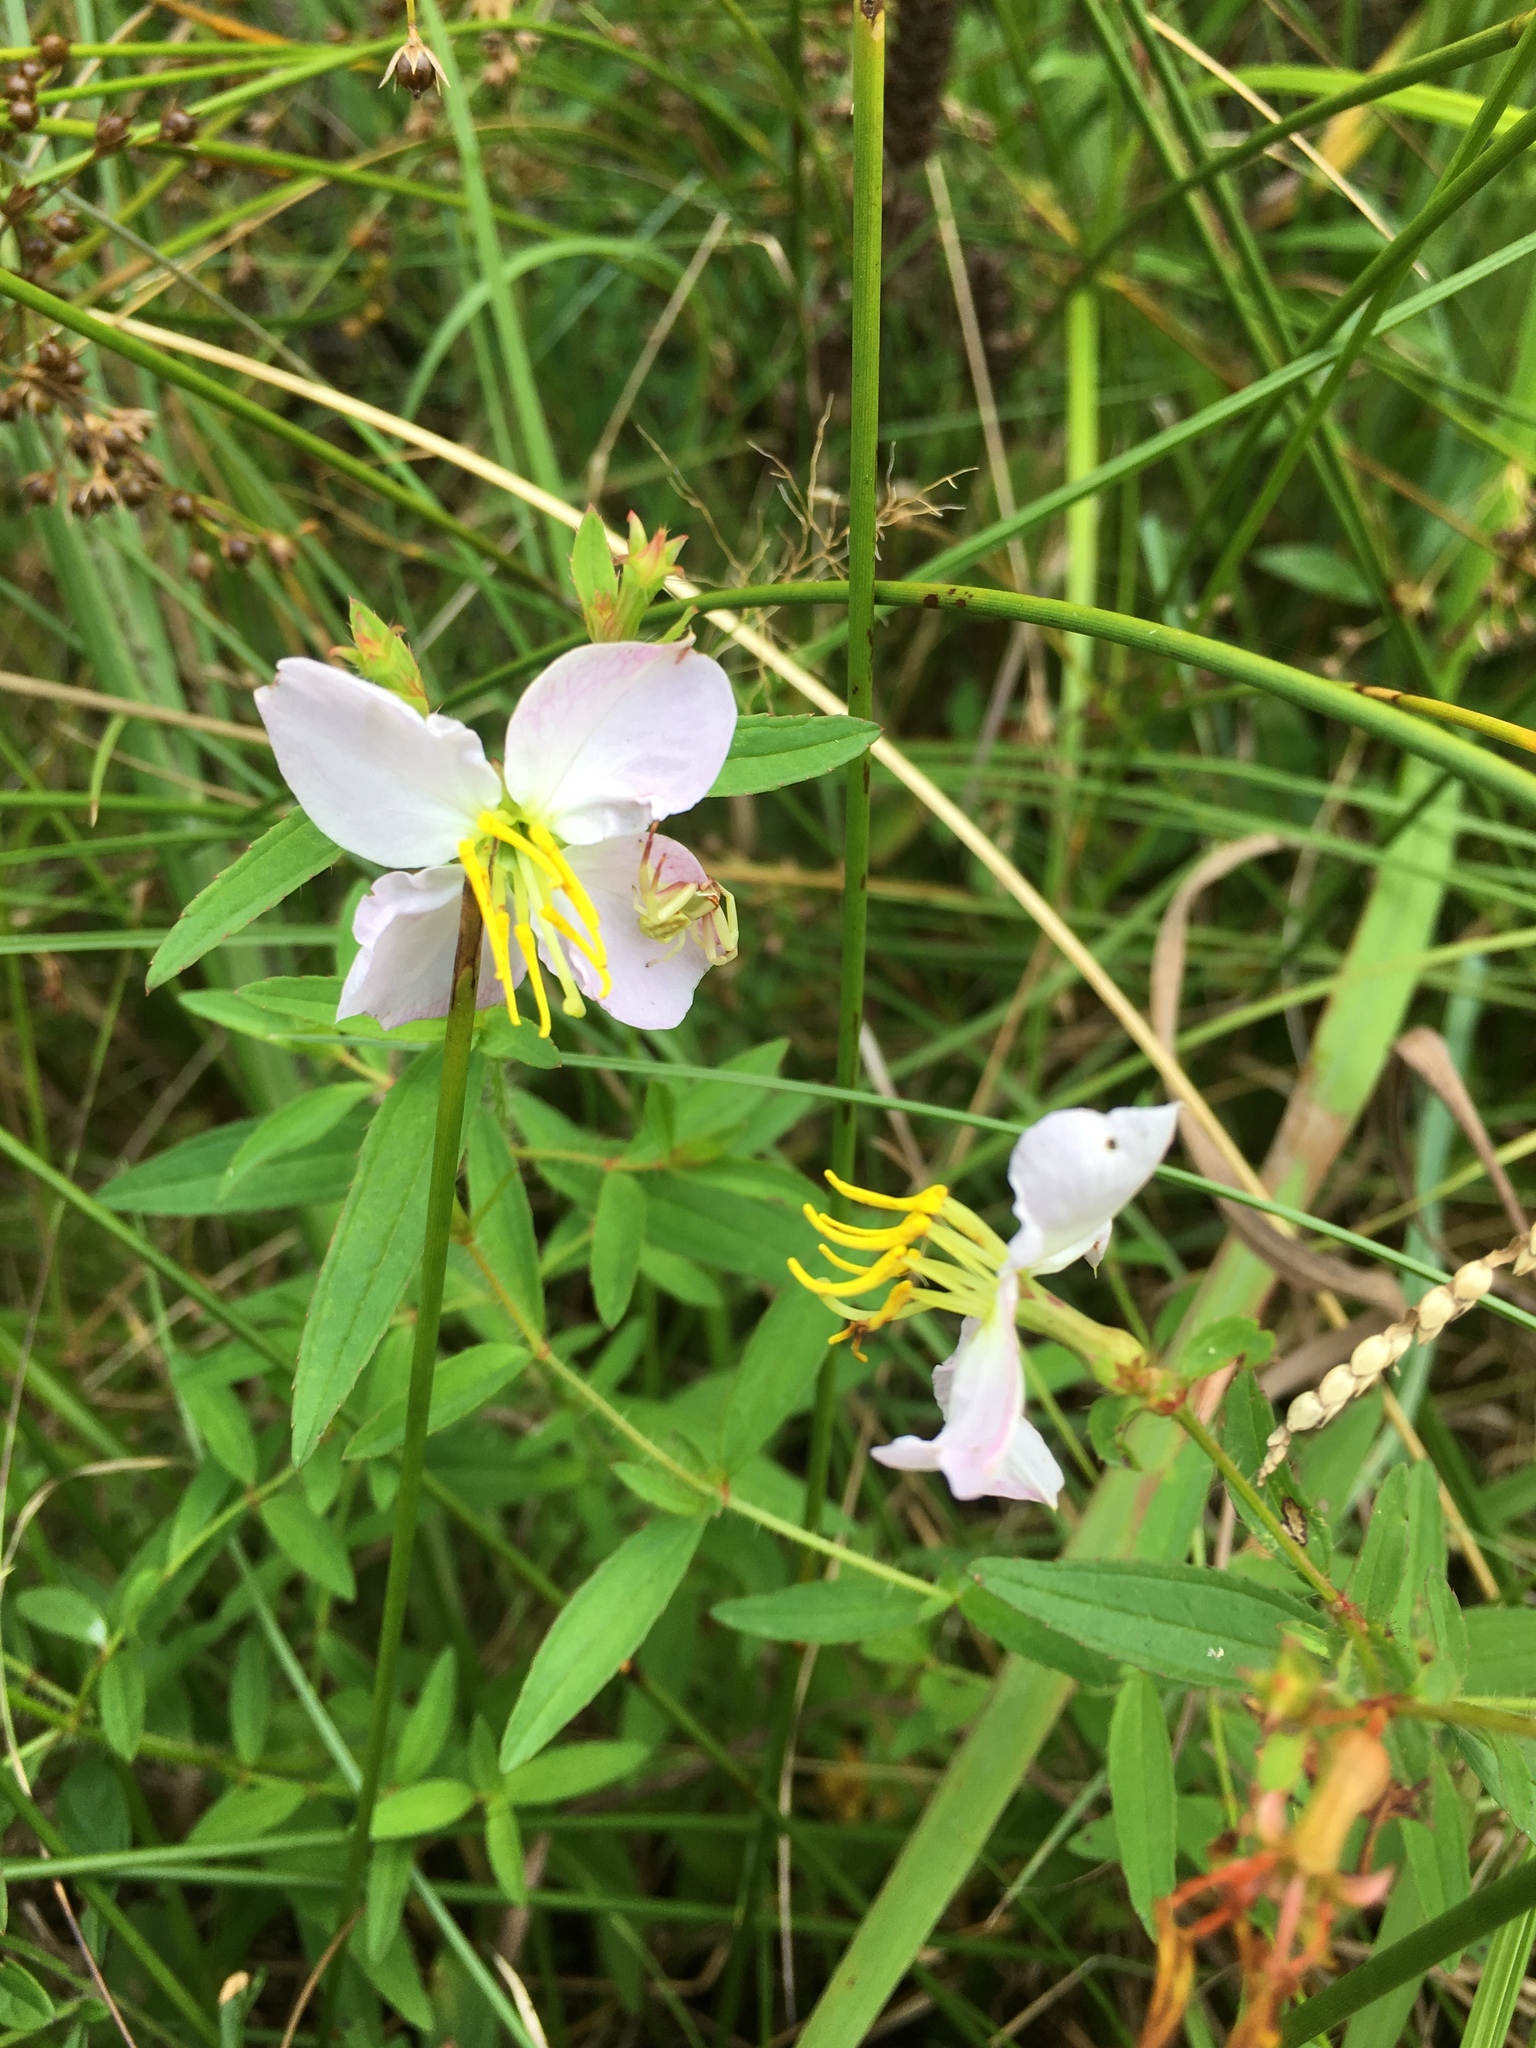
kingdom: Plantae
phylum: Tracheophyta
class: Magnoliopsida
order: Myrtales
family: Melastomataceae
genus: Rhexia
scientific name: Rhexia mariana
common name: Dull meadow-pitcher
